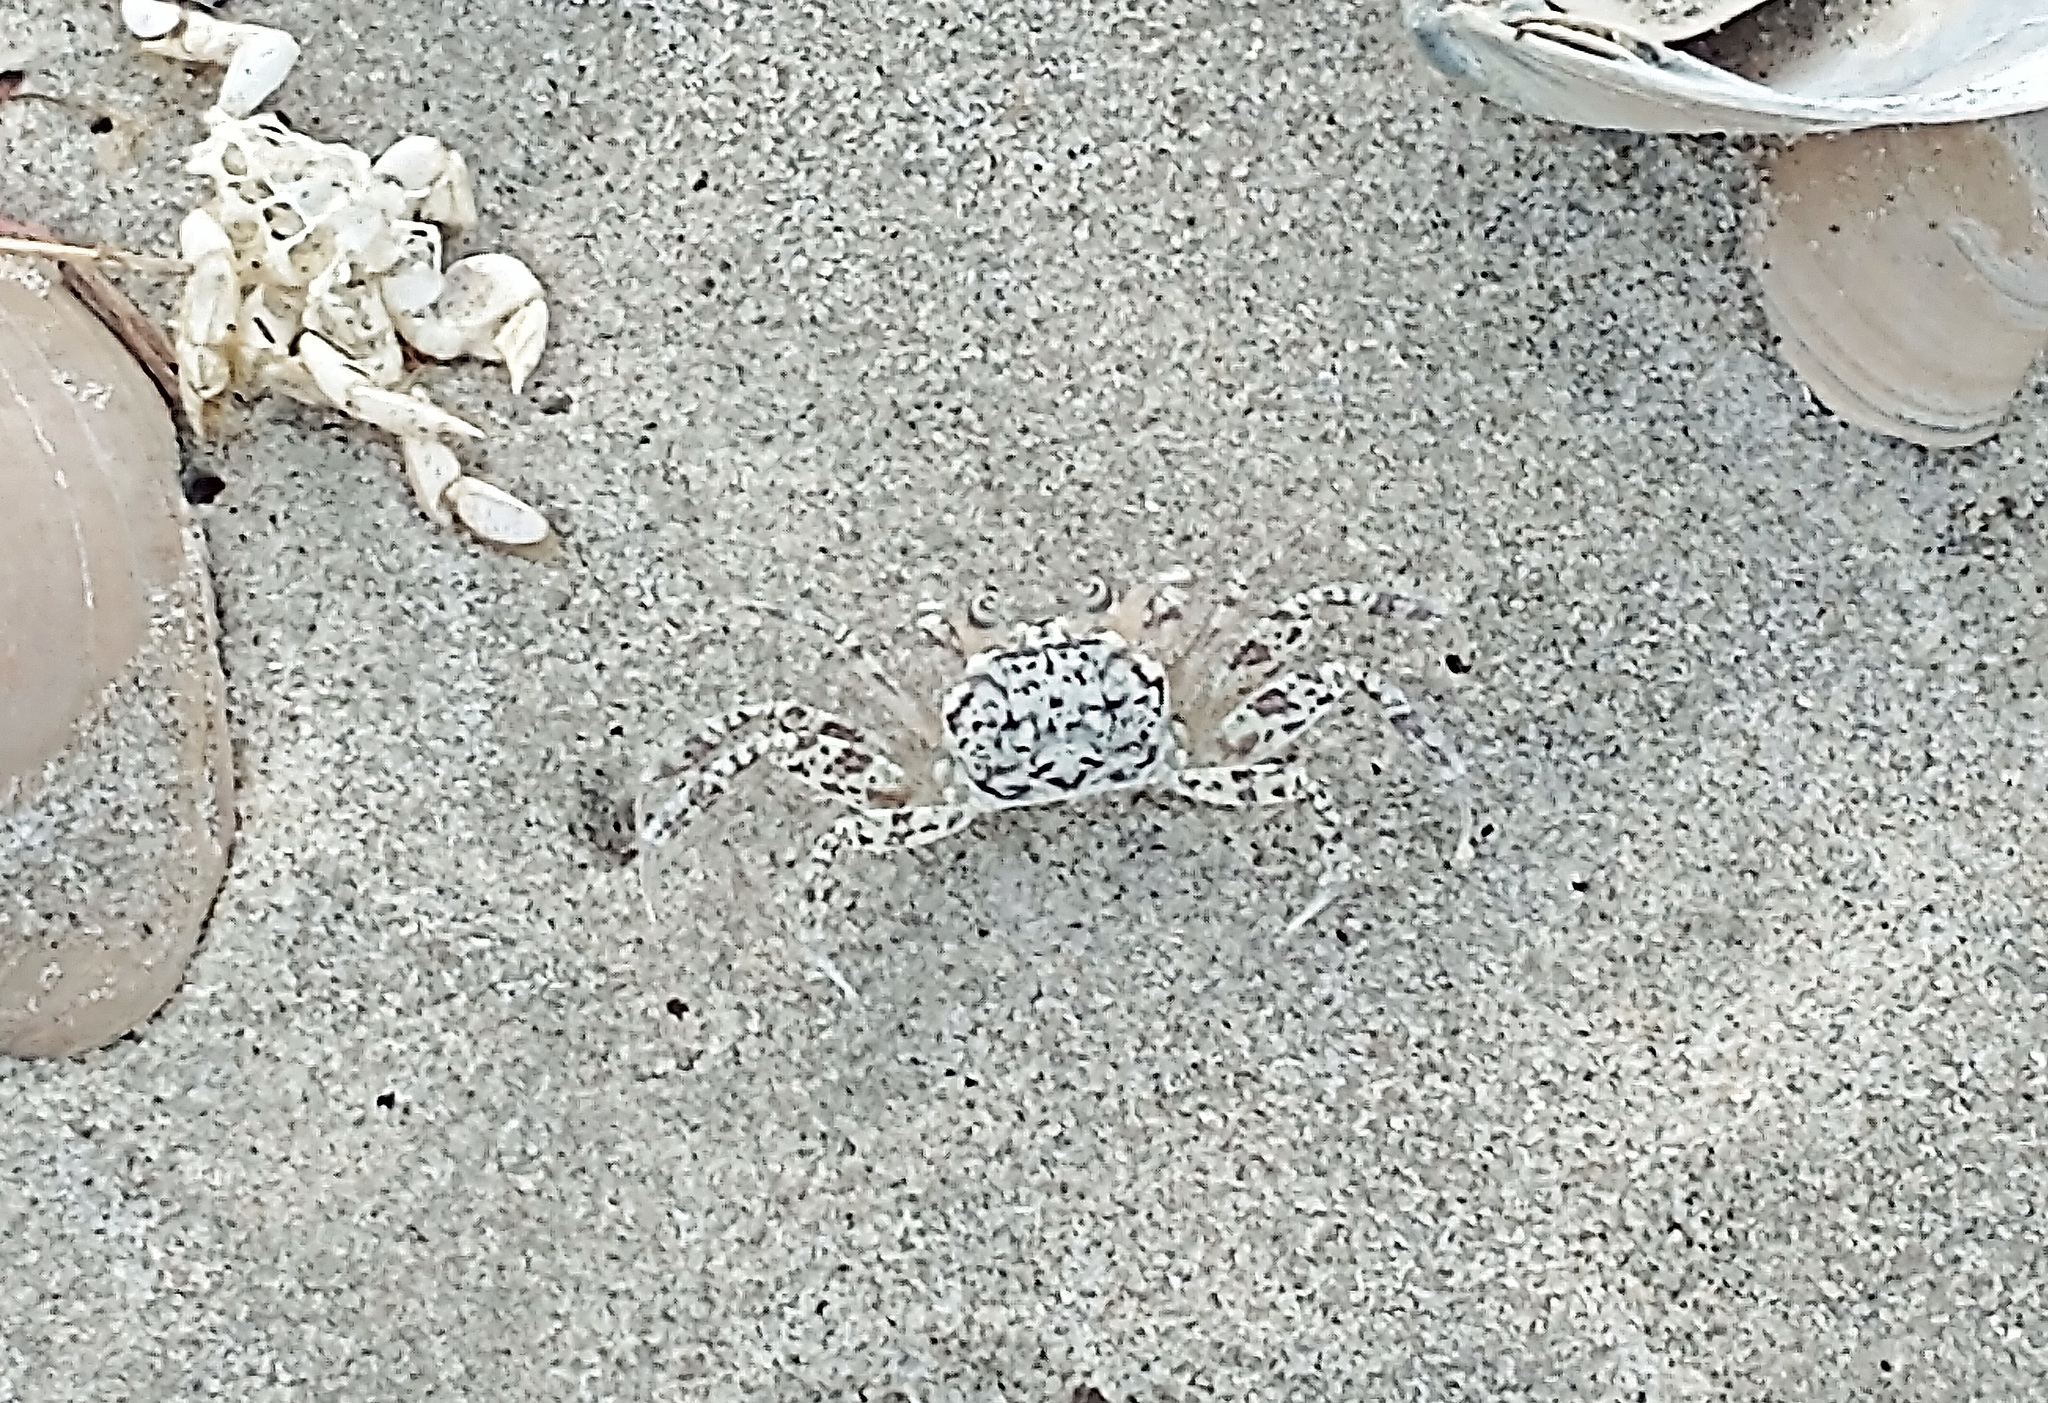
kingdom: Animalia
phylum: Arthropoda
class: Malacostraca
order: Decapoda
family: Ocypodidae
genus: Ocypode
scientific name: Ocypode quadrata
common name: Ghost crab
